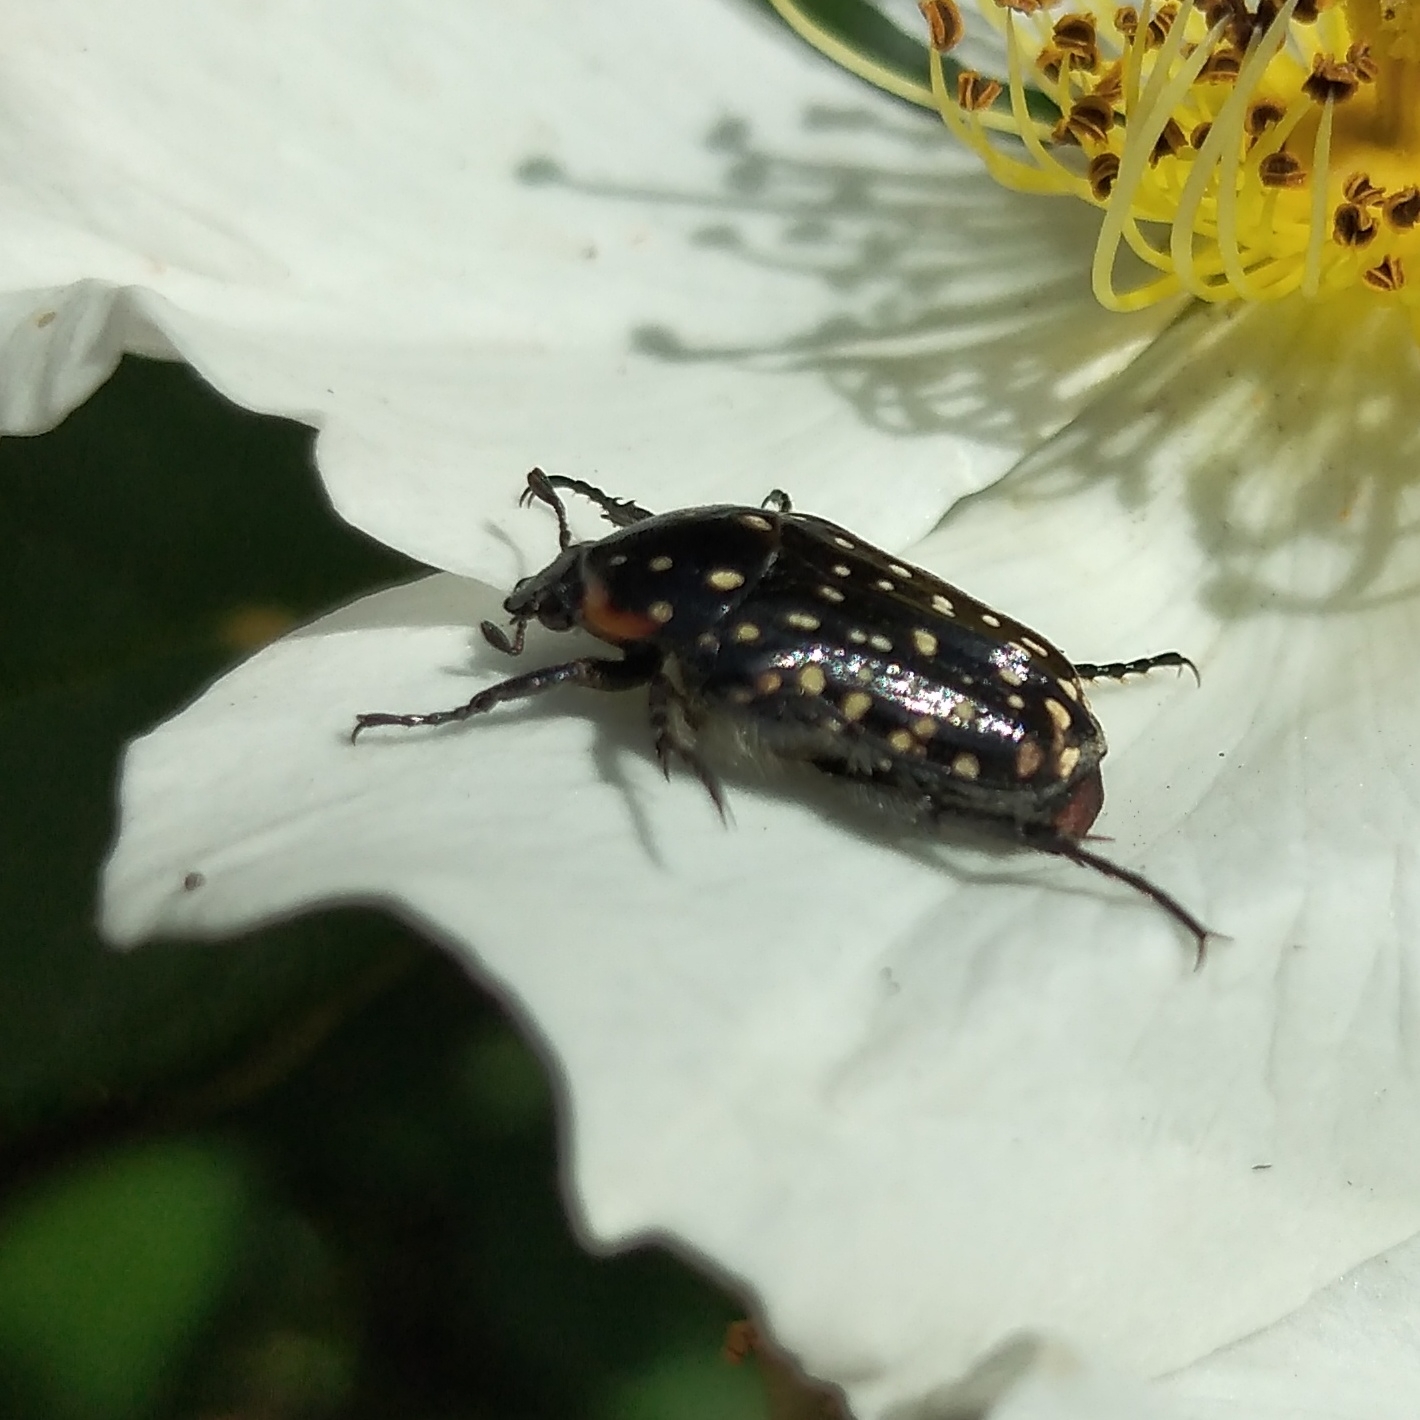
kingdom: Animalia
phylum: Arthropoda
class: Insecta
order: Coleoptera
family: Scarabaeidae
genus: Oxythyrea
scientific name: Oxythyrea
